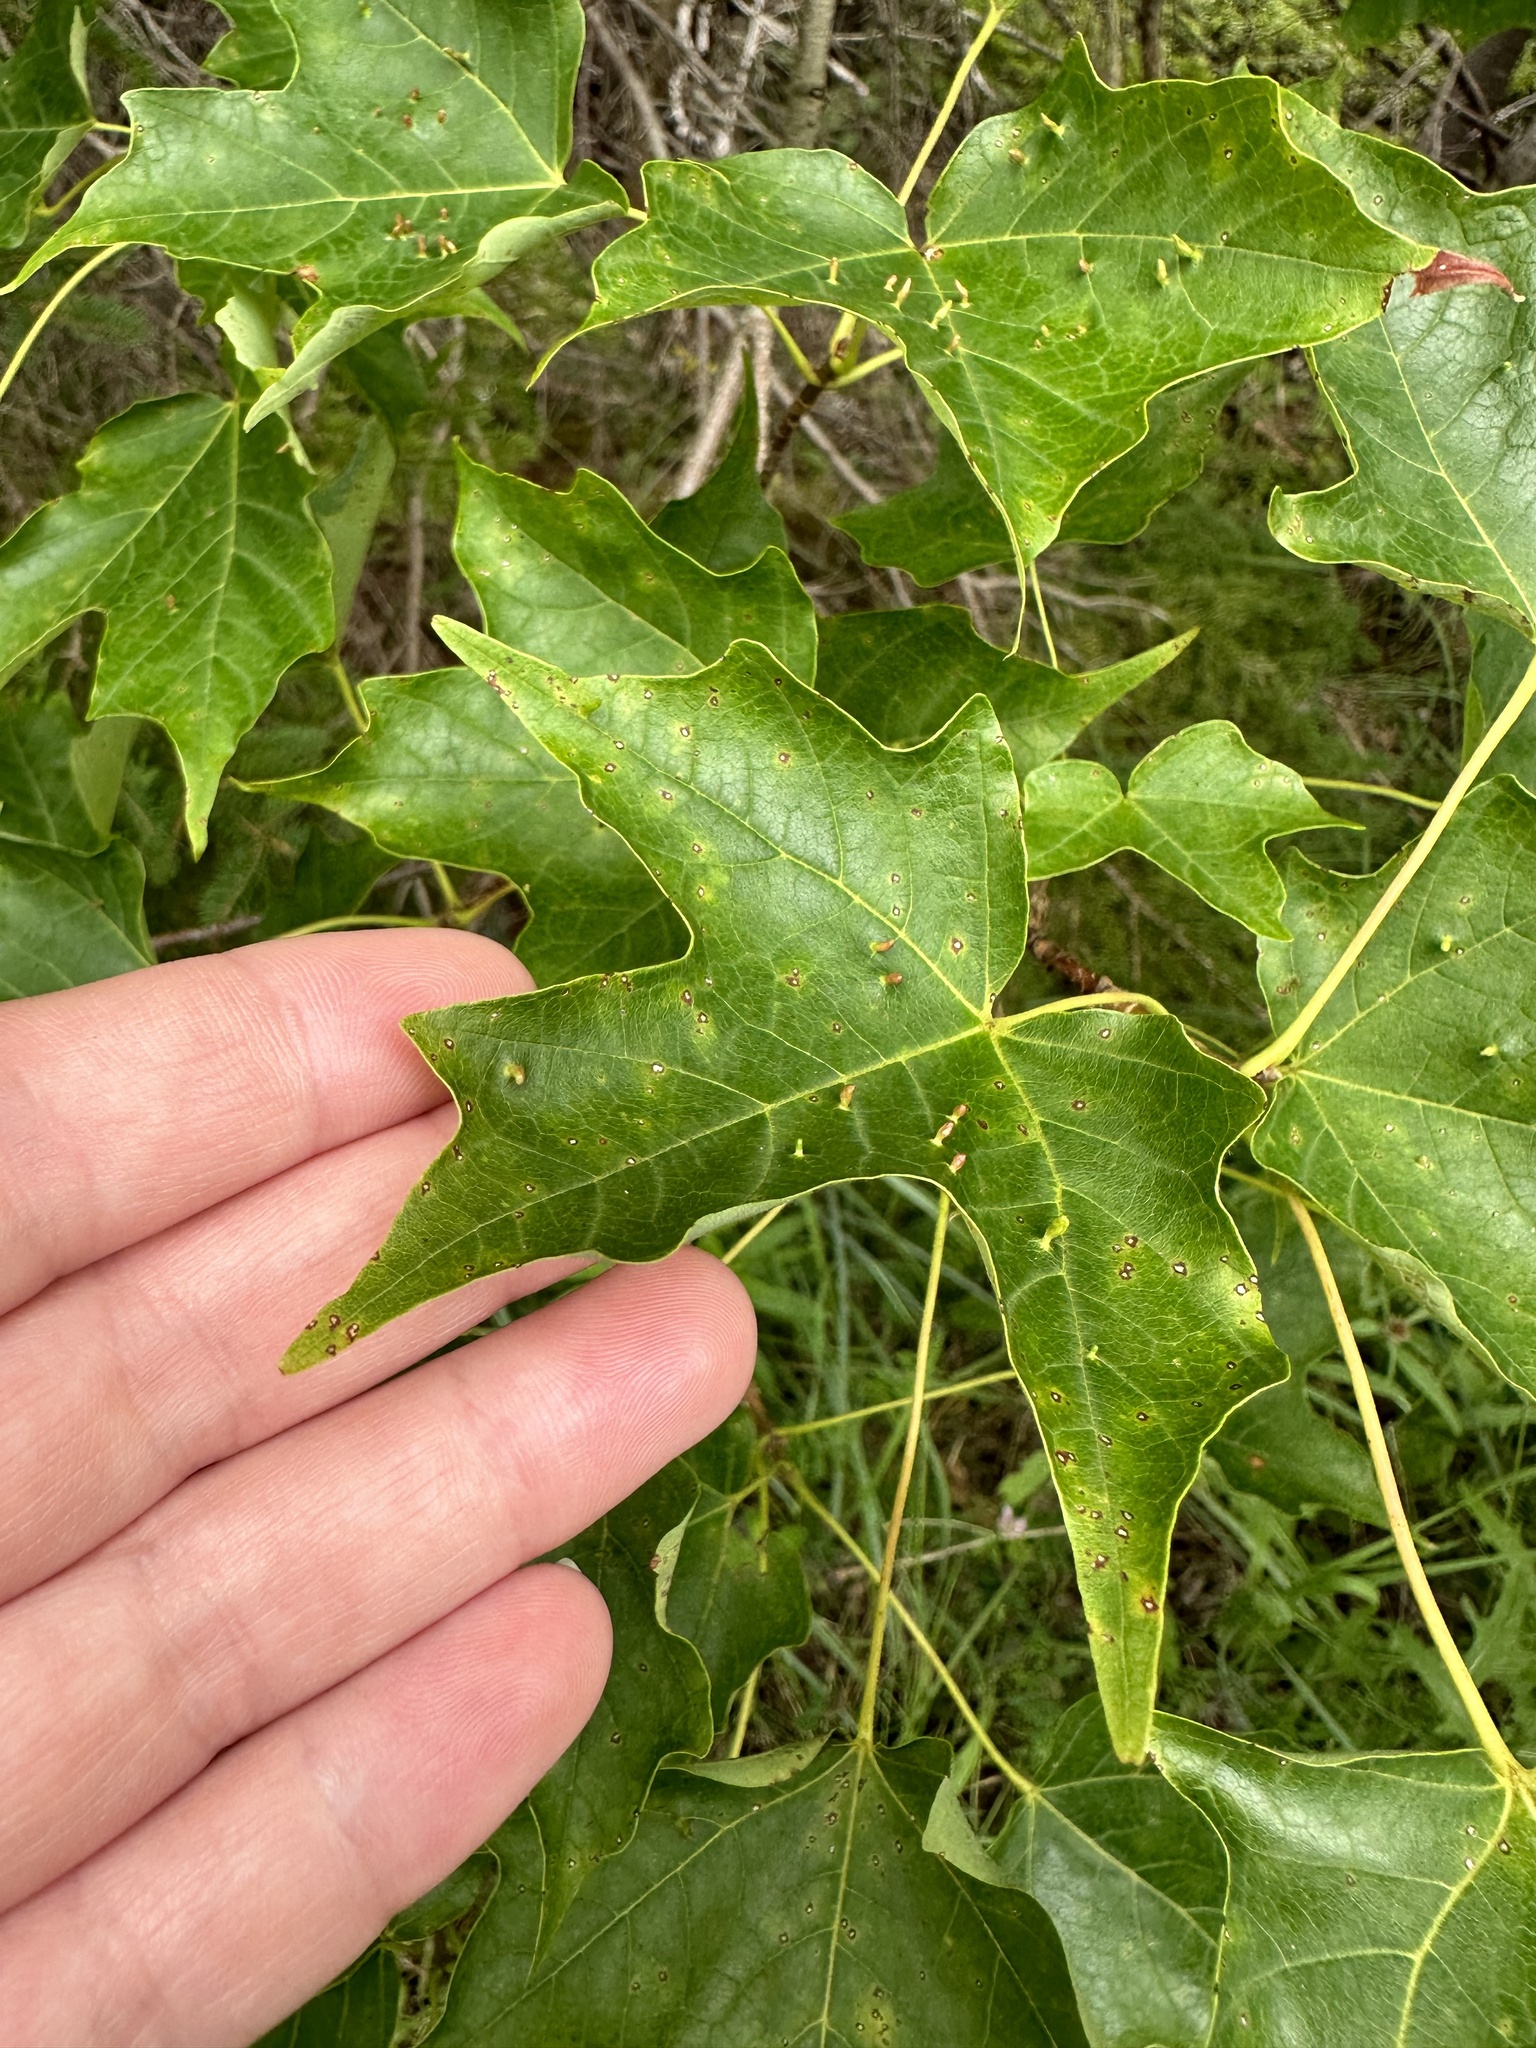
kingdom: Animalia
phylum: Arthropoda
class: Arachnida
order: Trombidiformes
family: Eriophyidae
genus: Vasates
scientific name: Vasates aceriscrumena
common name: Maple spindle gall mite
